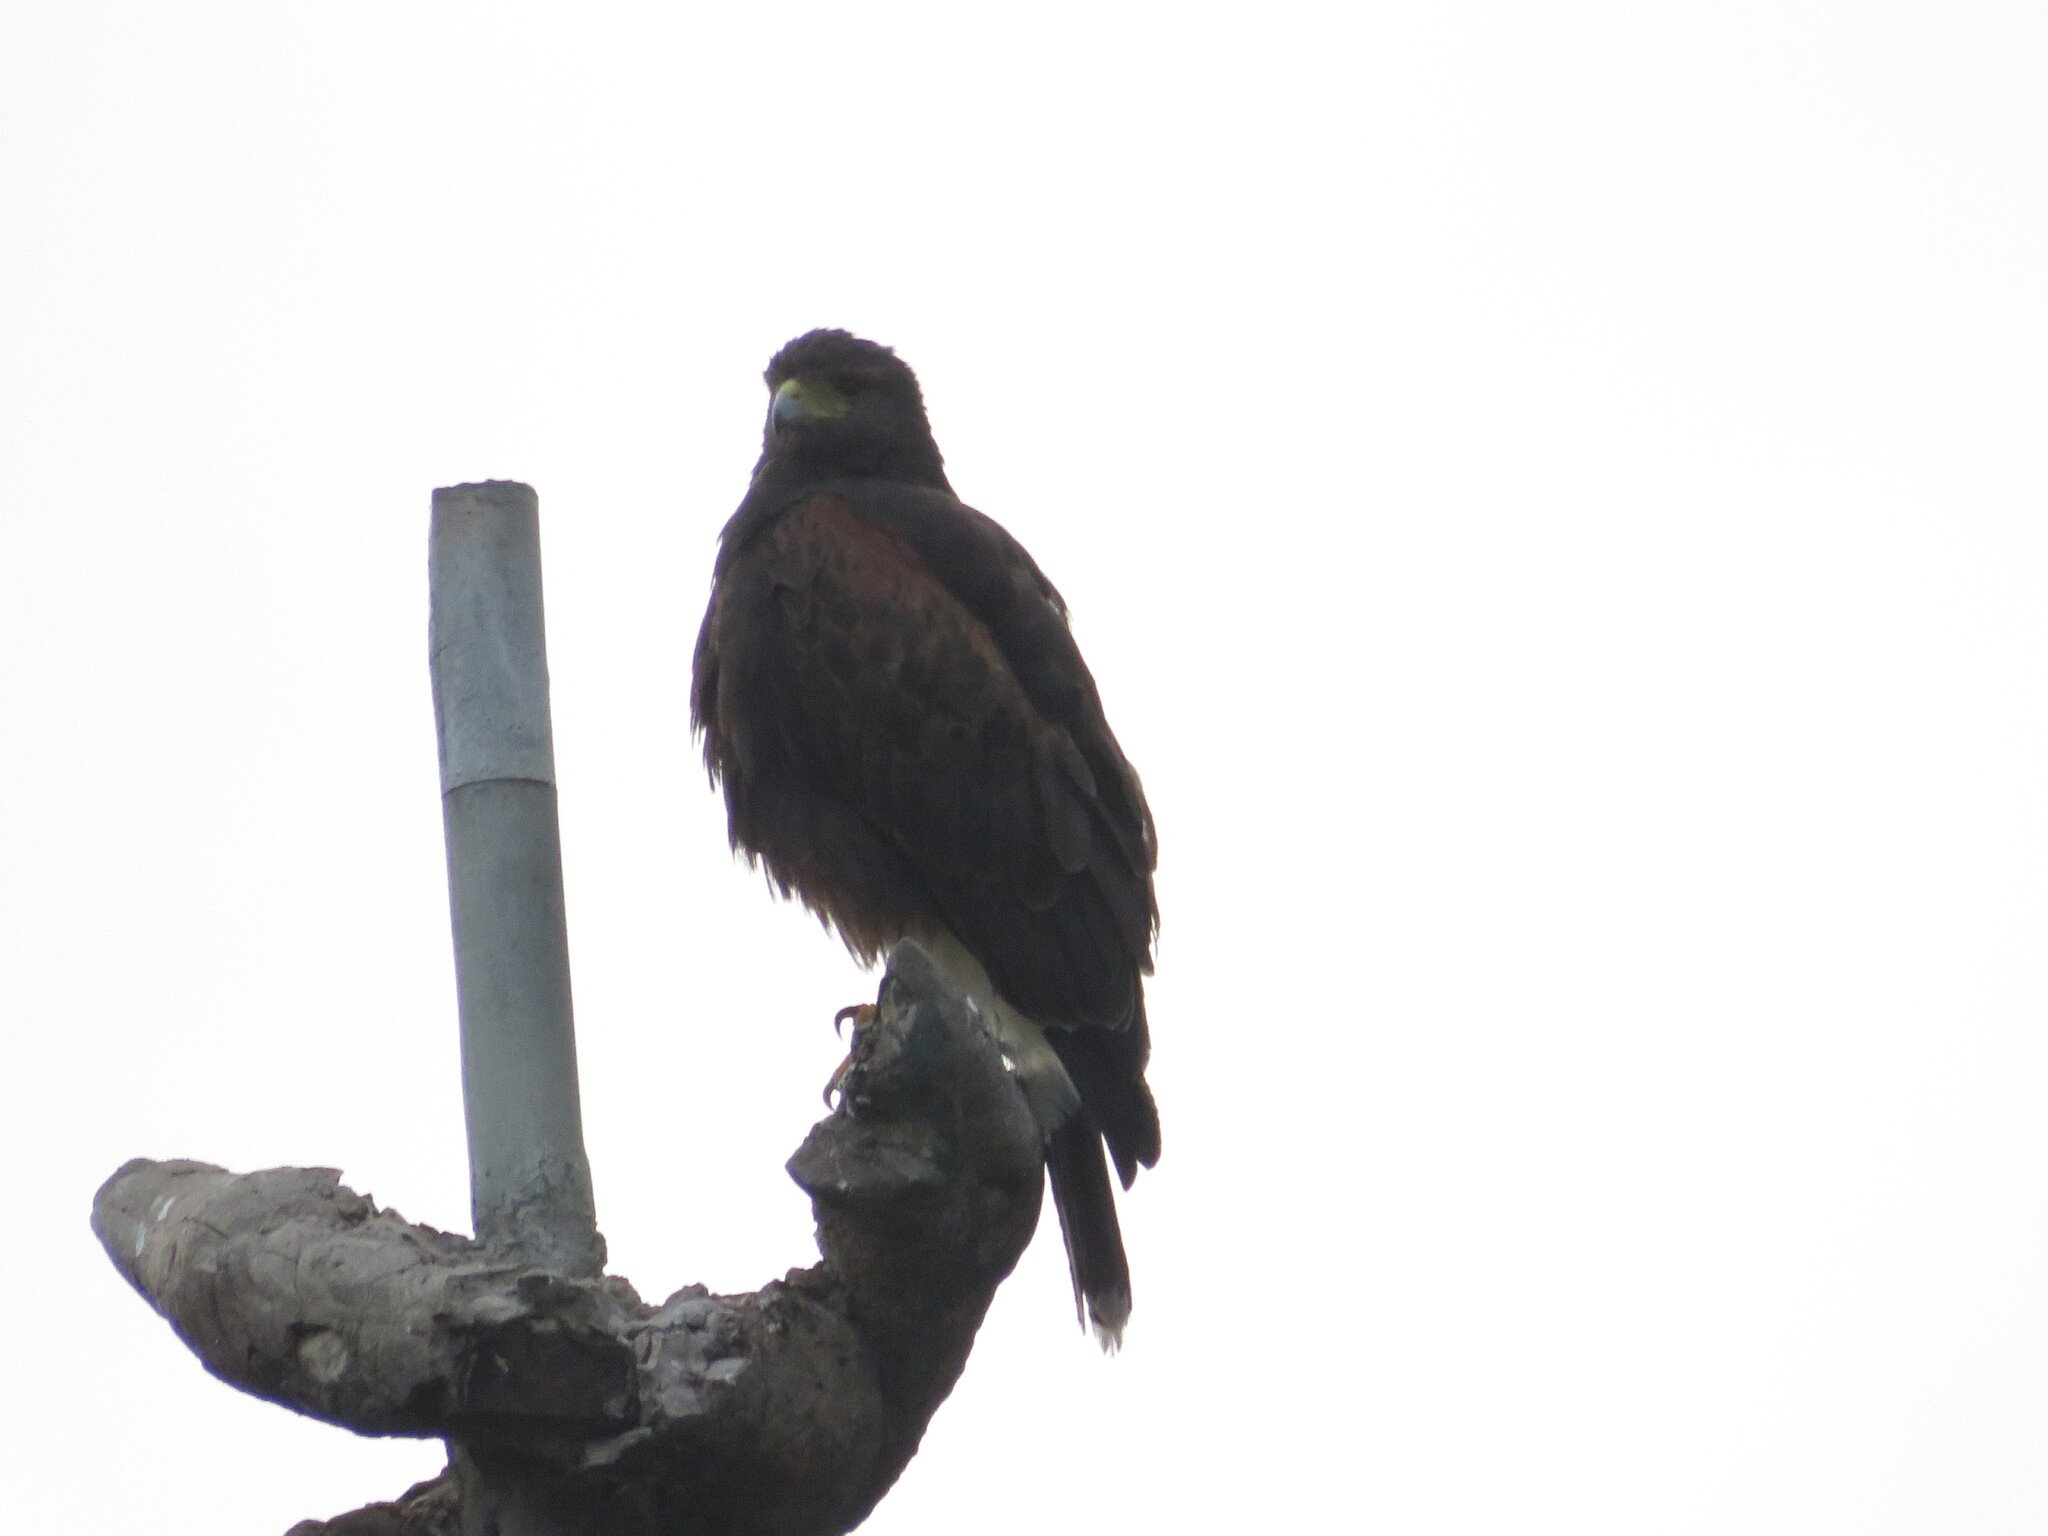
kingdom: Animalia
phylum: Chordata
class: Aves
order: Accipitriformes
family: Accipitridae
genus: Parabuteo
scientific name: Parabuteo unicinctus
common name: Harris's hawk
